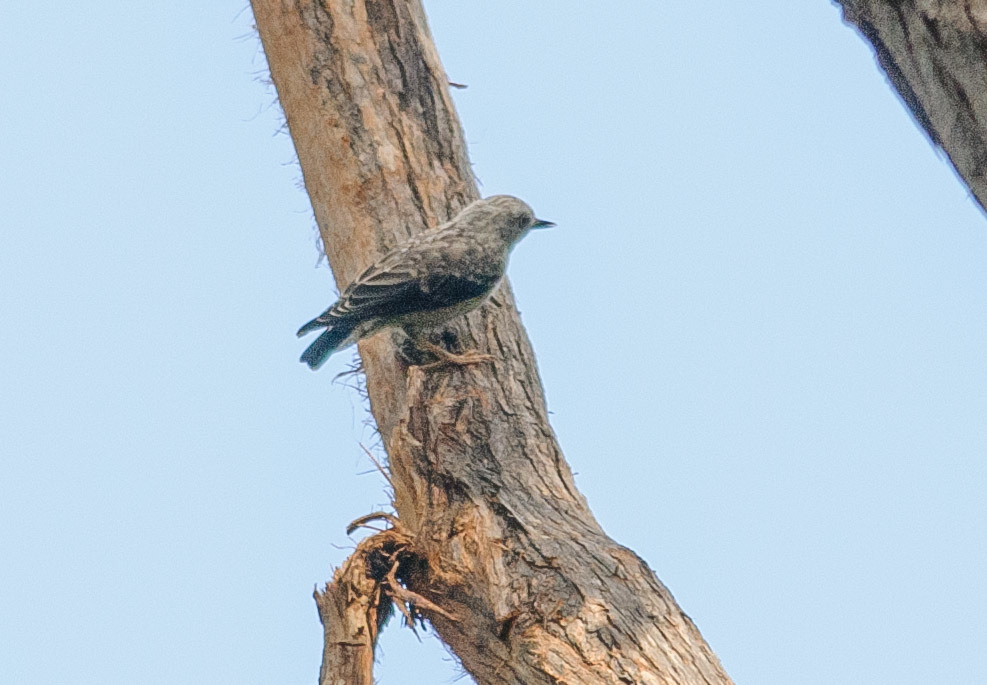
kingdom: Animalia
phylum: Chordata
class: Aves
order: Passeriformes
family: Neosittidae
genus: Daphoenositta
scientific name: Daphoenositta chrysoptera
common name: Varied sittella
